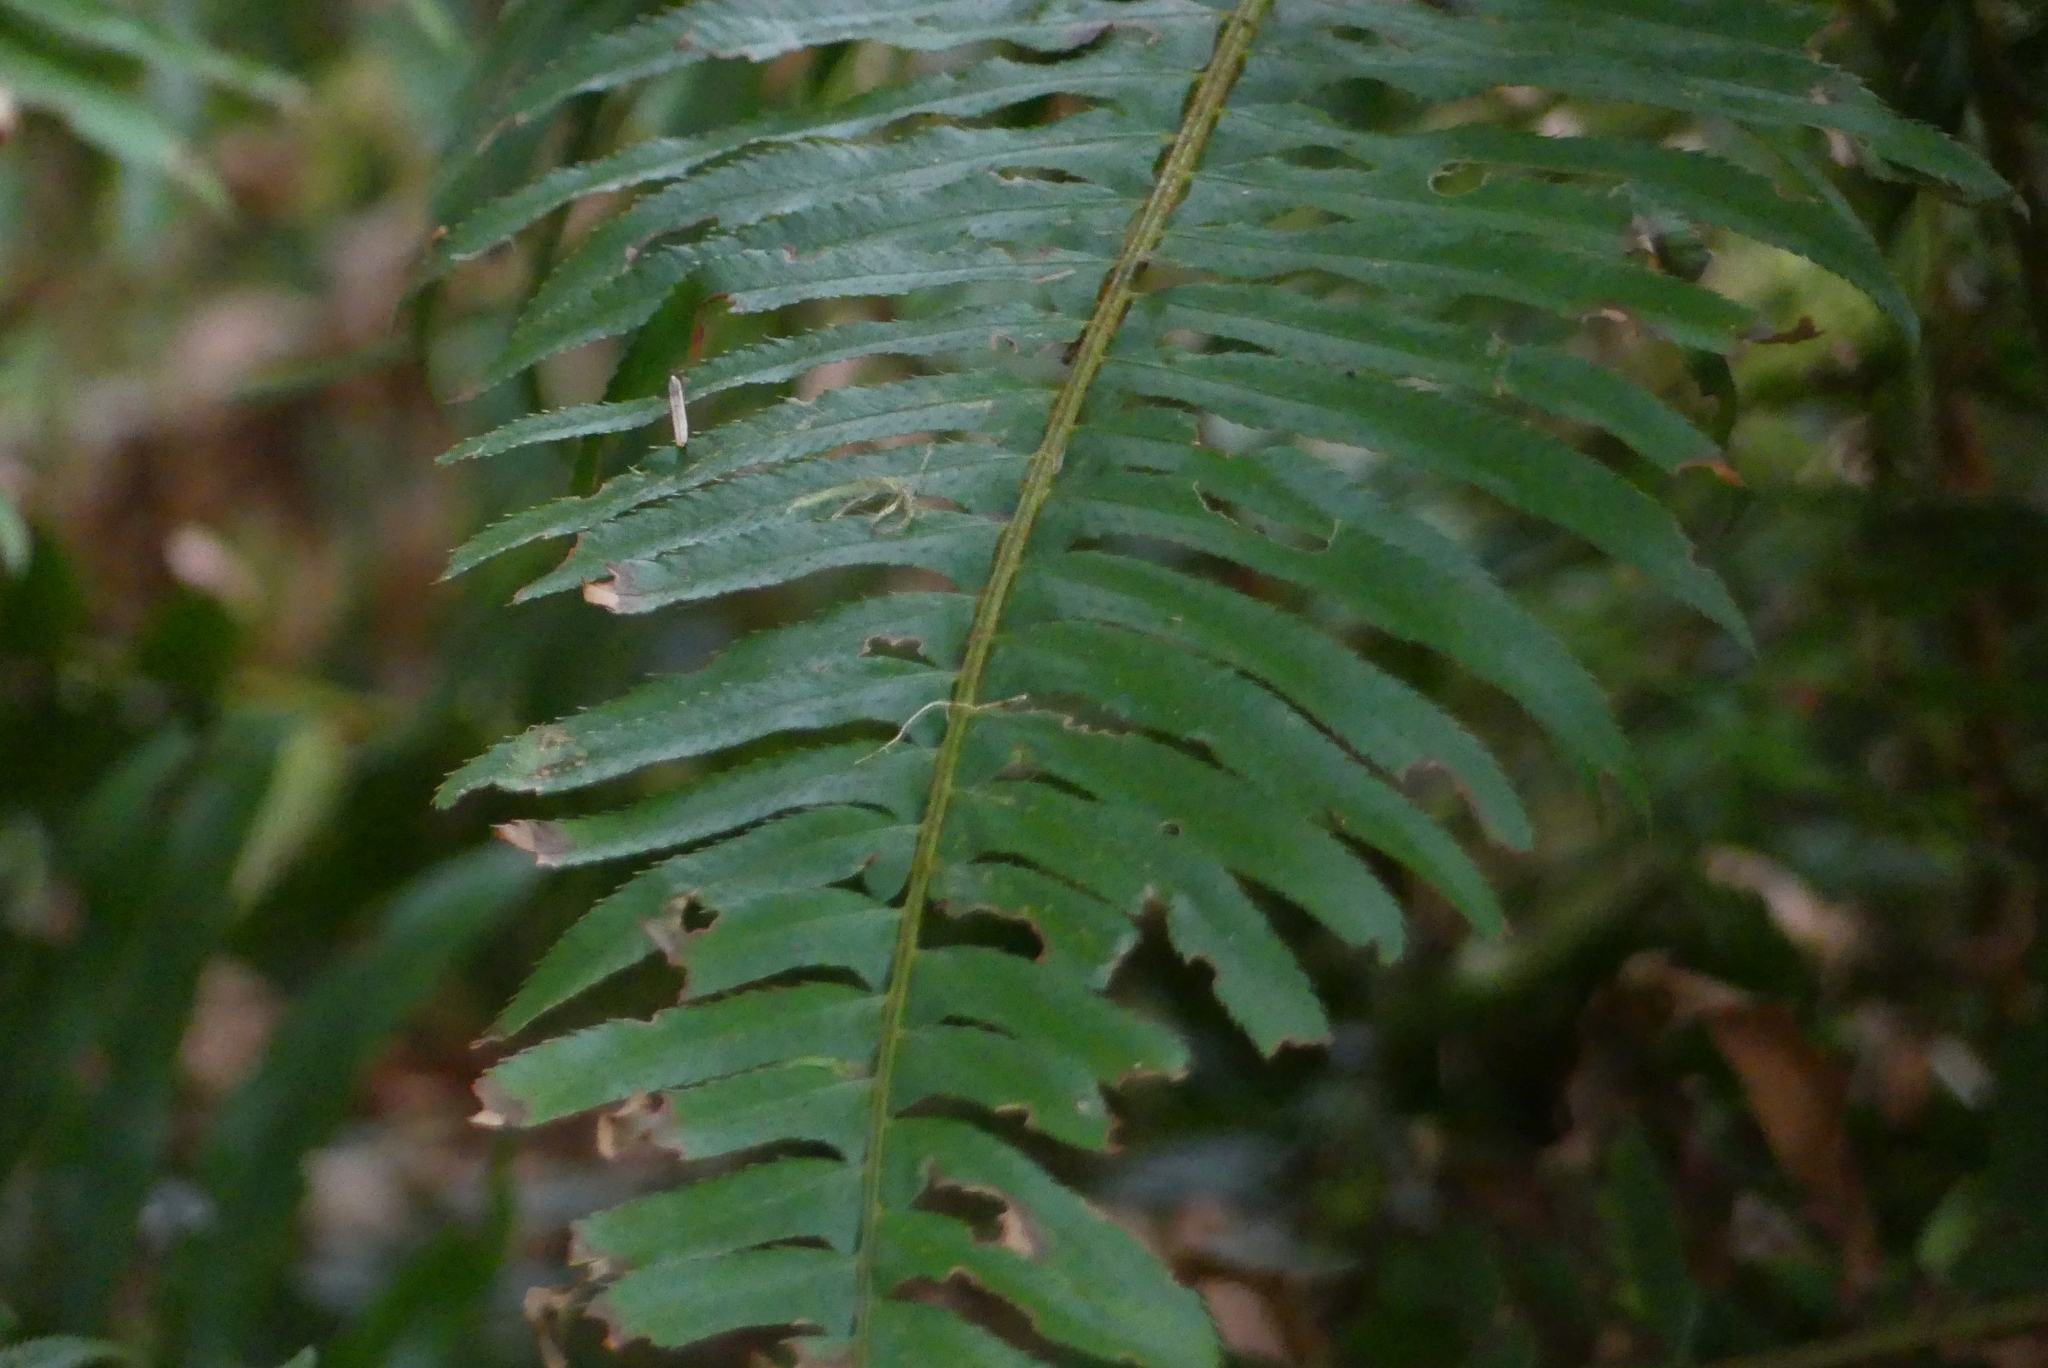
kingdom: Plantae
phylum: Tracheophyta
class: Polypodiopsida
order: Polypodiales
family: Dryopteridaceae
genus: Polystichum
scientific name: Polystichum munitum
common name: Western sword-fern
